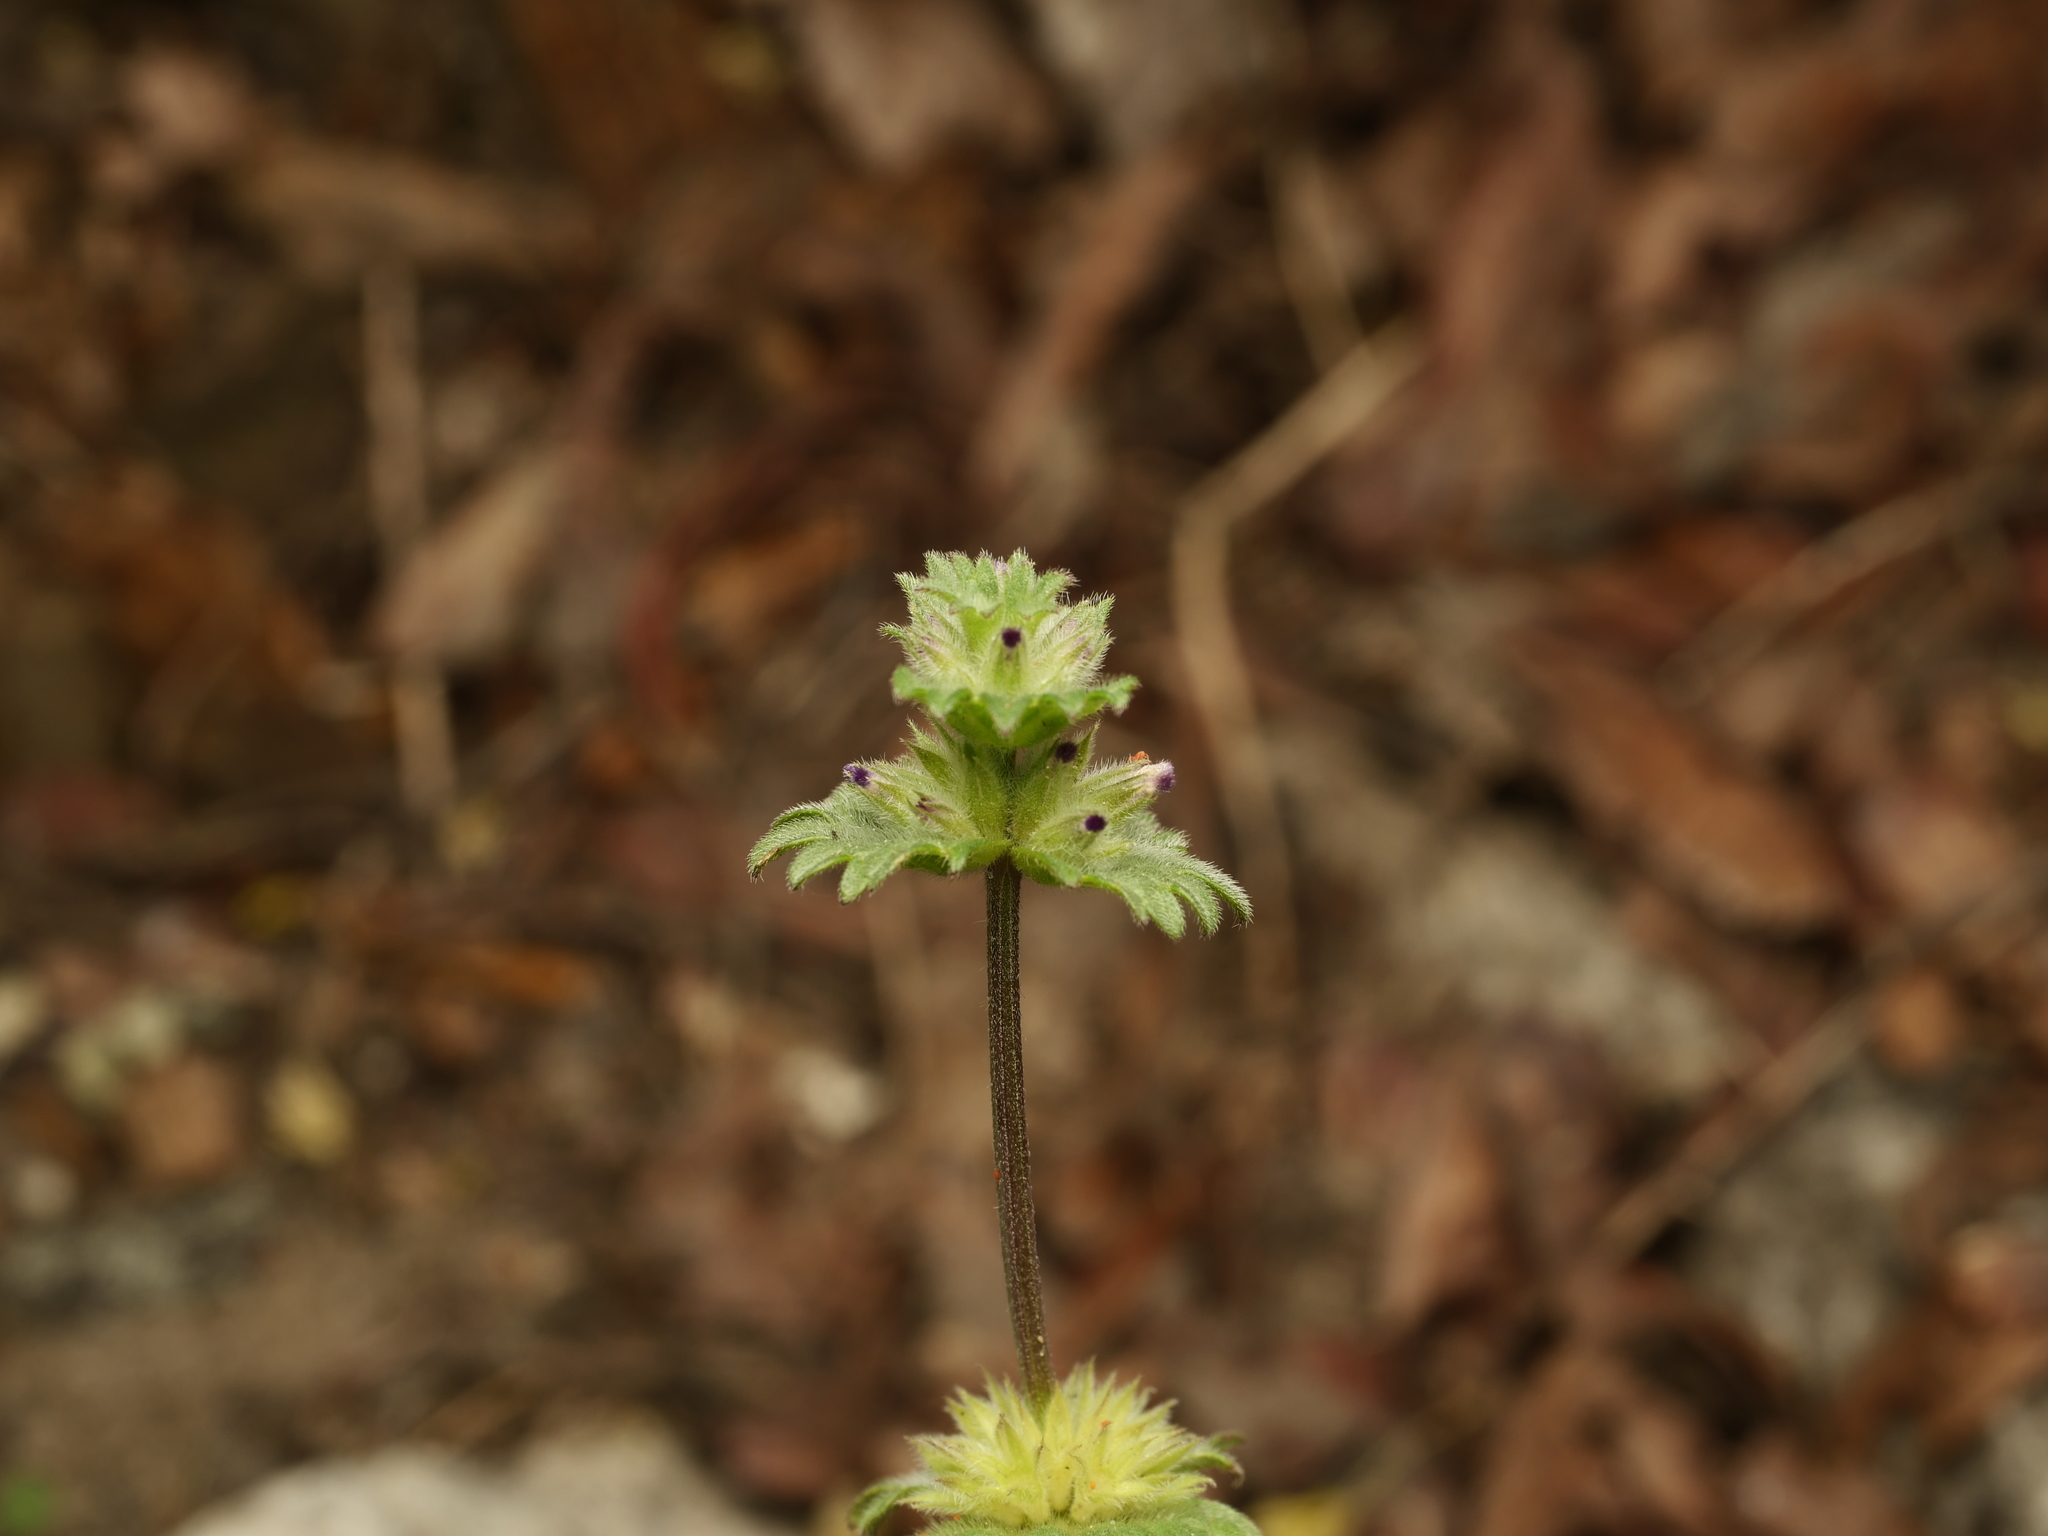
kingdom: Plantae
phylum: Tracheophyta
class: Magnoliopsida
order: Lamiales
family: Lamiaceae
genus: Lamium
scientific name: Lamium amplexicaule
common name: Henbit dead-nettle
